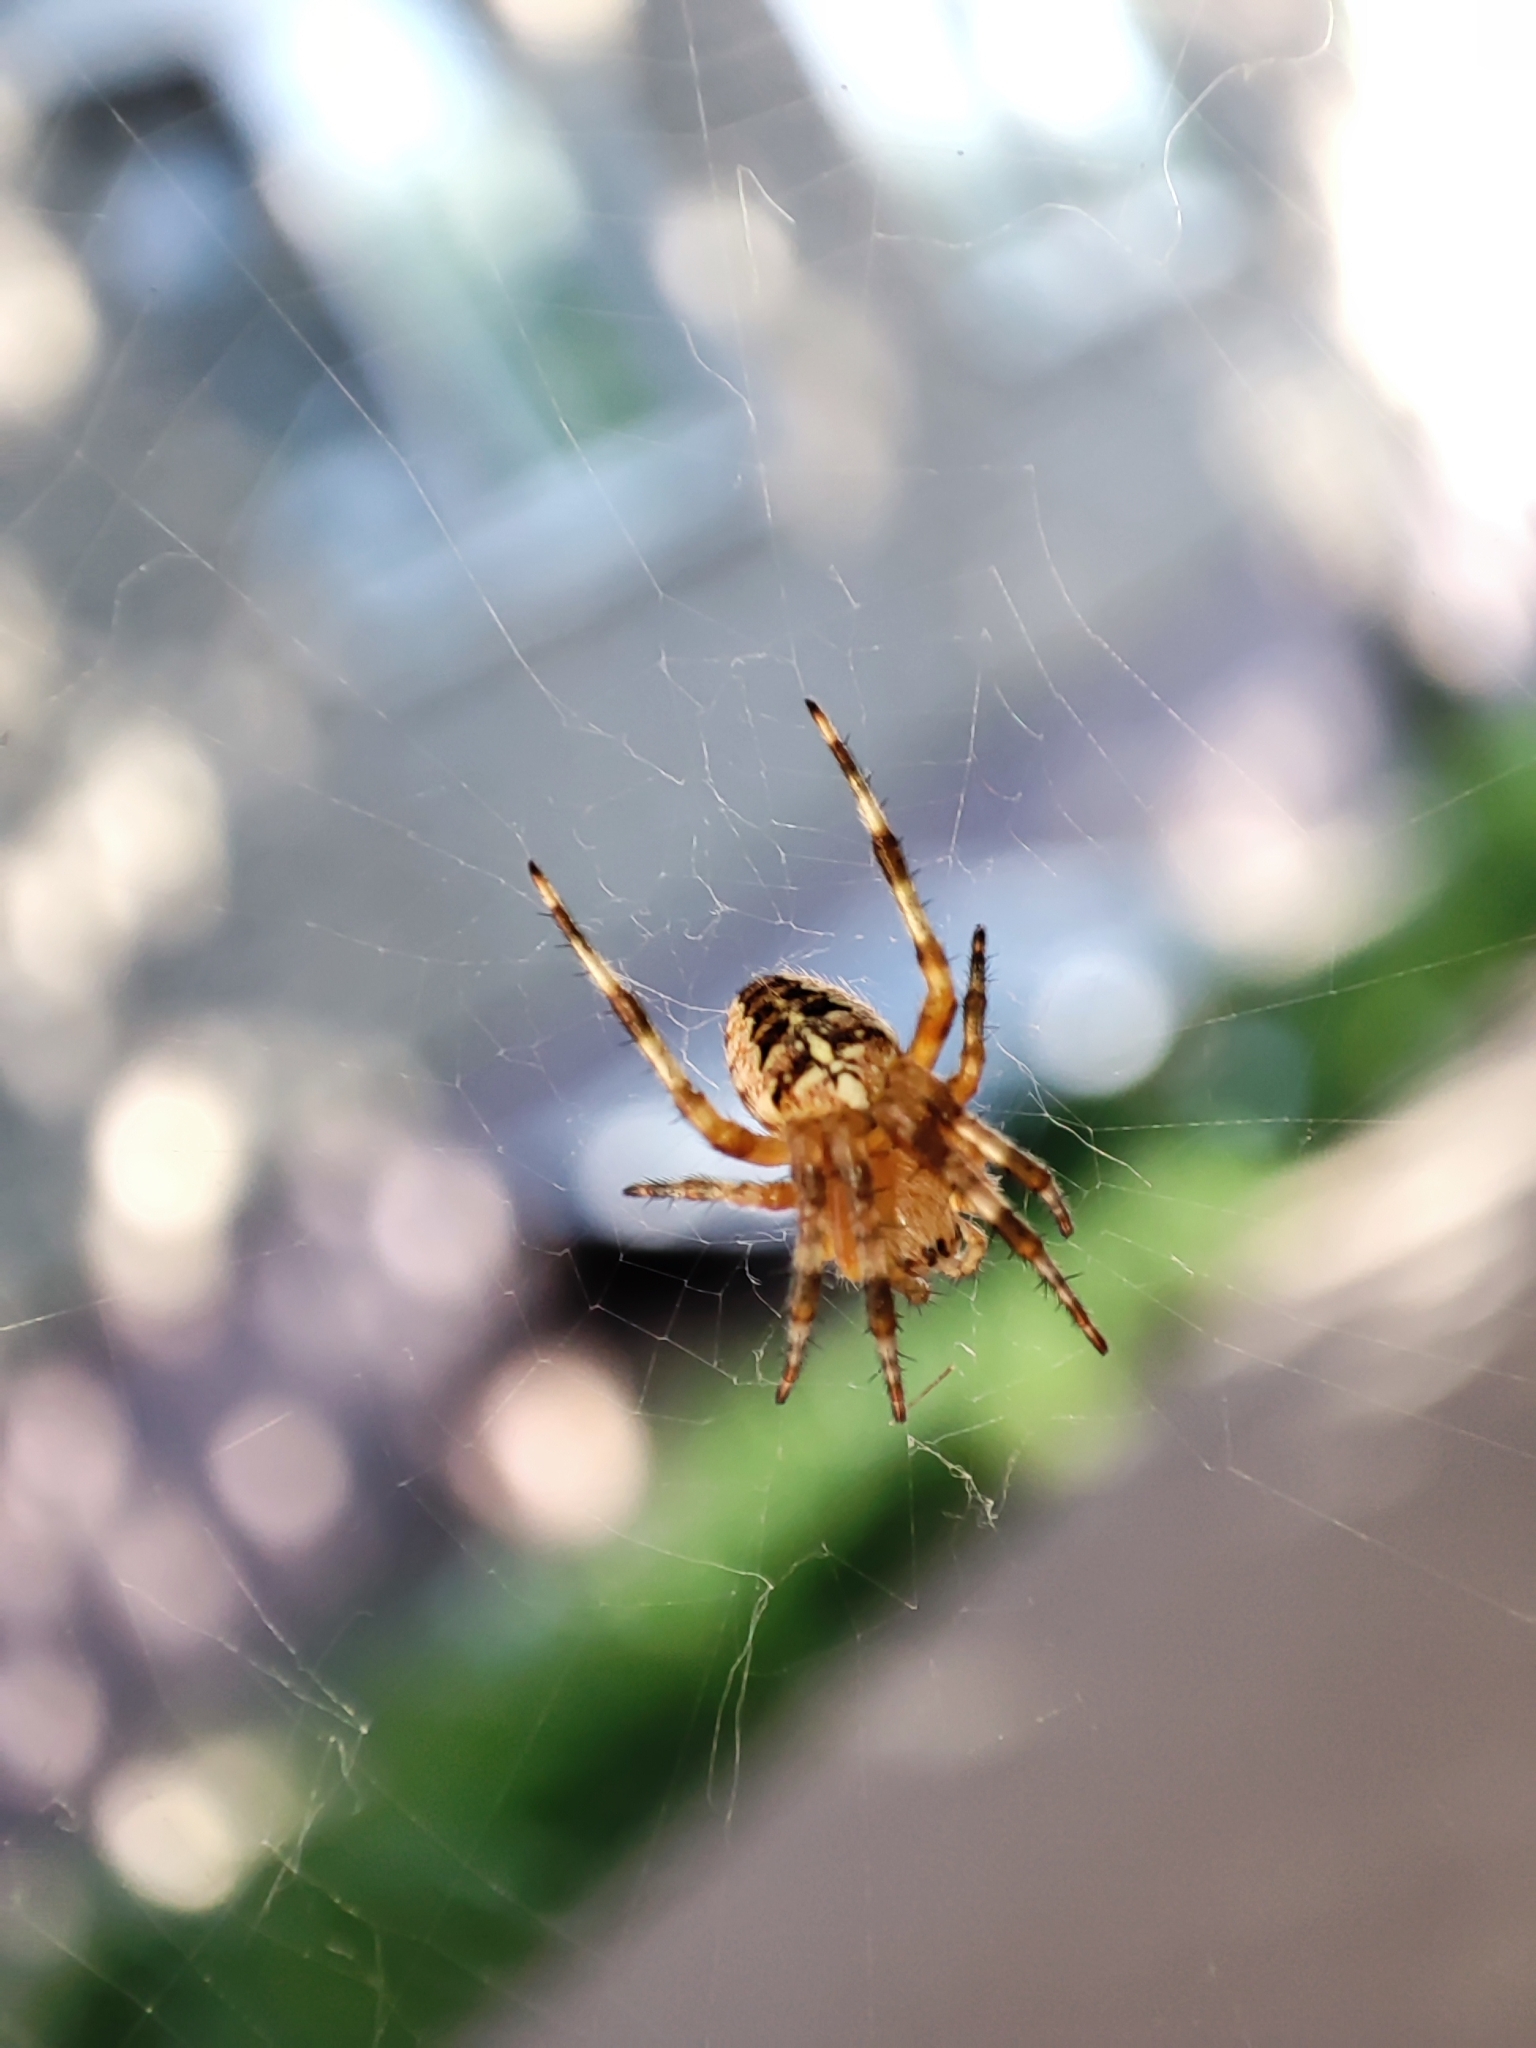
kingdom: Animalia
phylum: Arthropoda
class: Arachnida
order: Araneae
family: Araneidae
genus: Araneus
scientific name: Araneus diadematus
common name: Cross orbweaver
